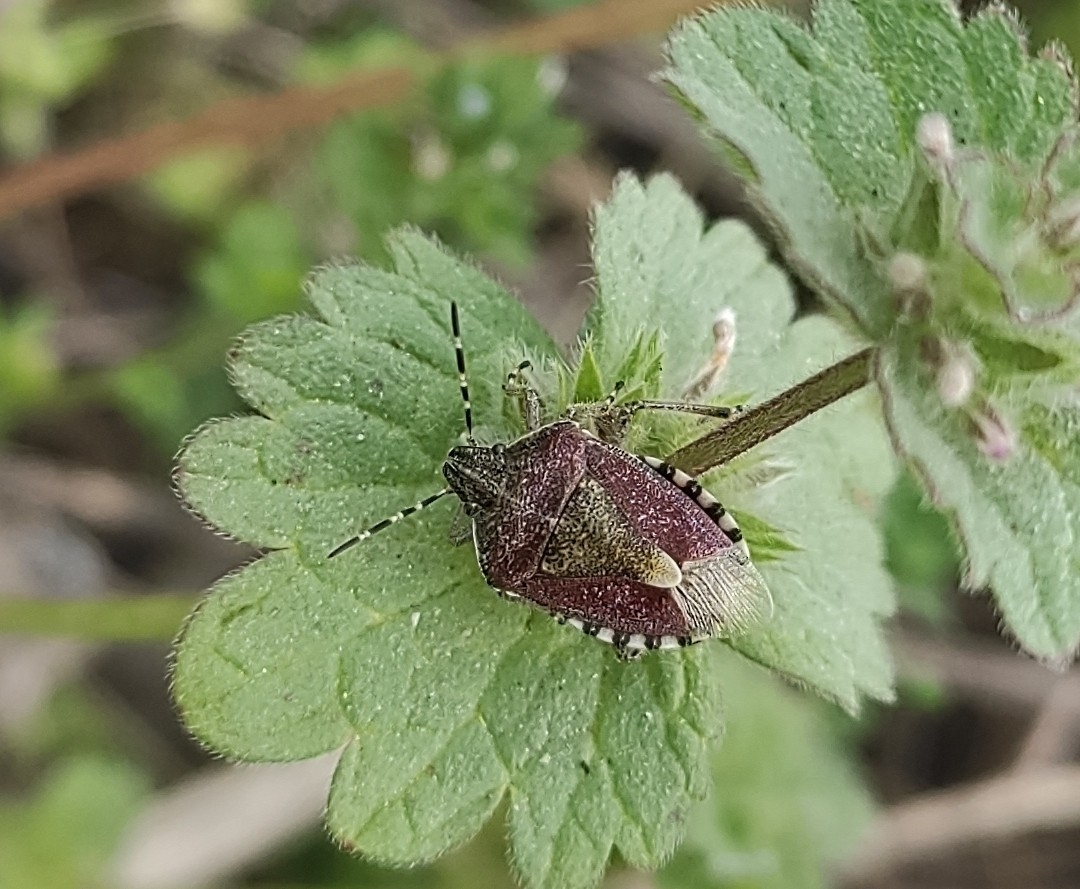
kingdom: Animalia
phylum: Arthropoda
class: Insecta
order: Hemiptera
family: Pentatomidae
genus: Dolycoris
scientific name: Dolycoris baccarum
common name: Sloe bug
